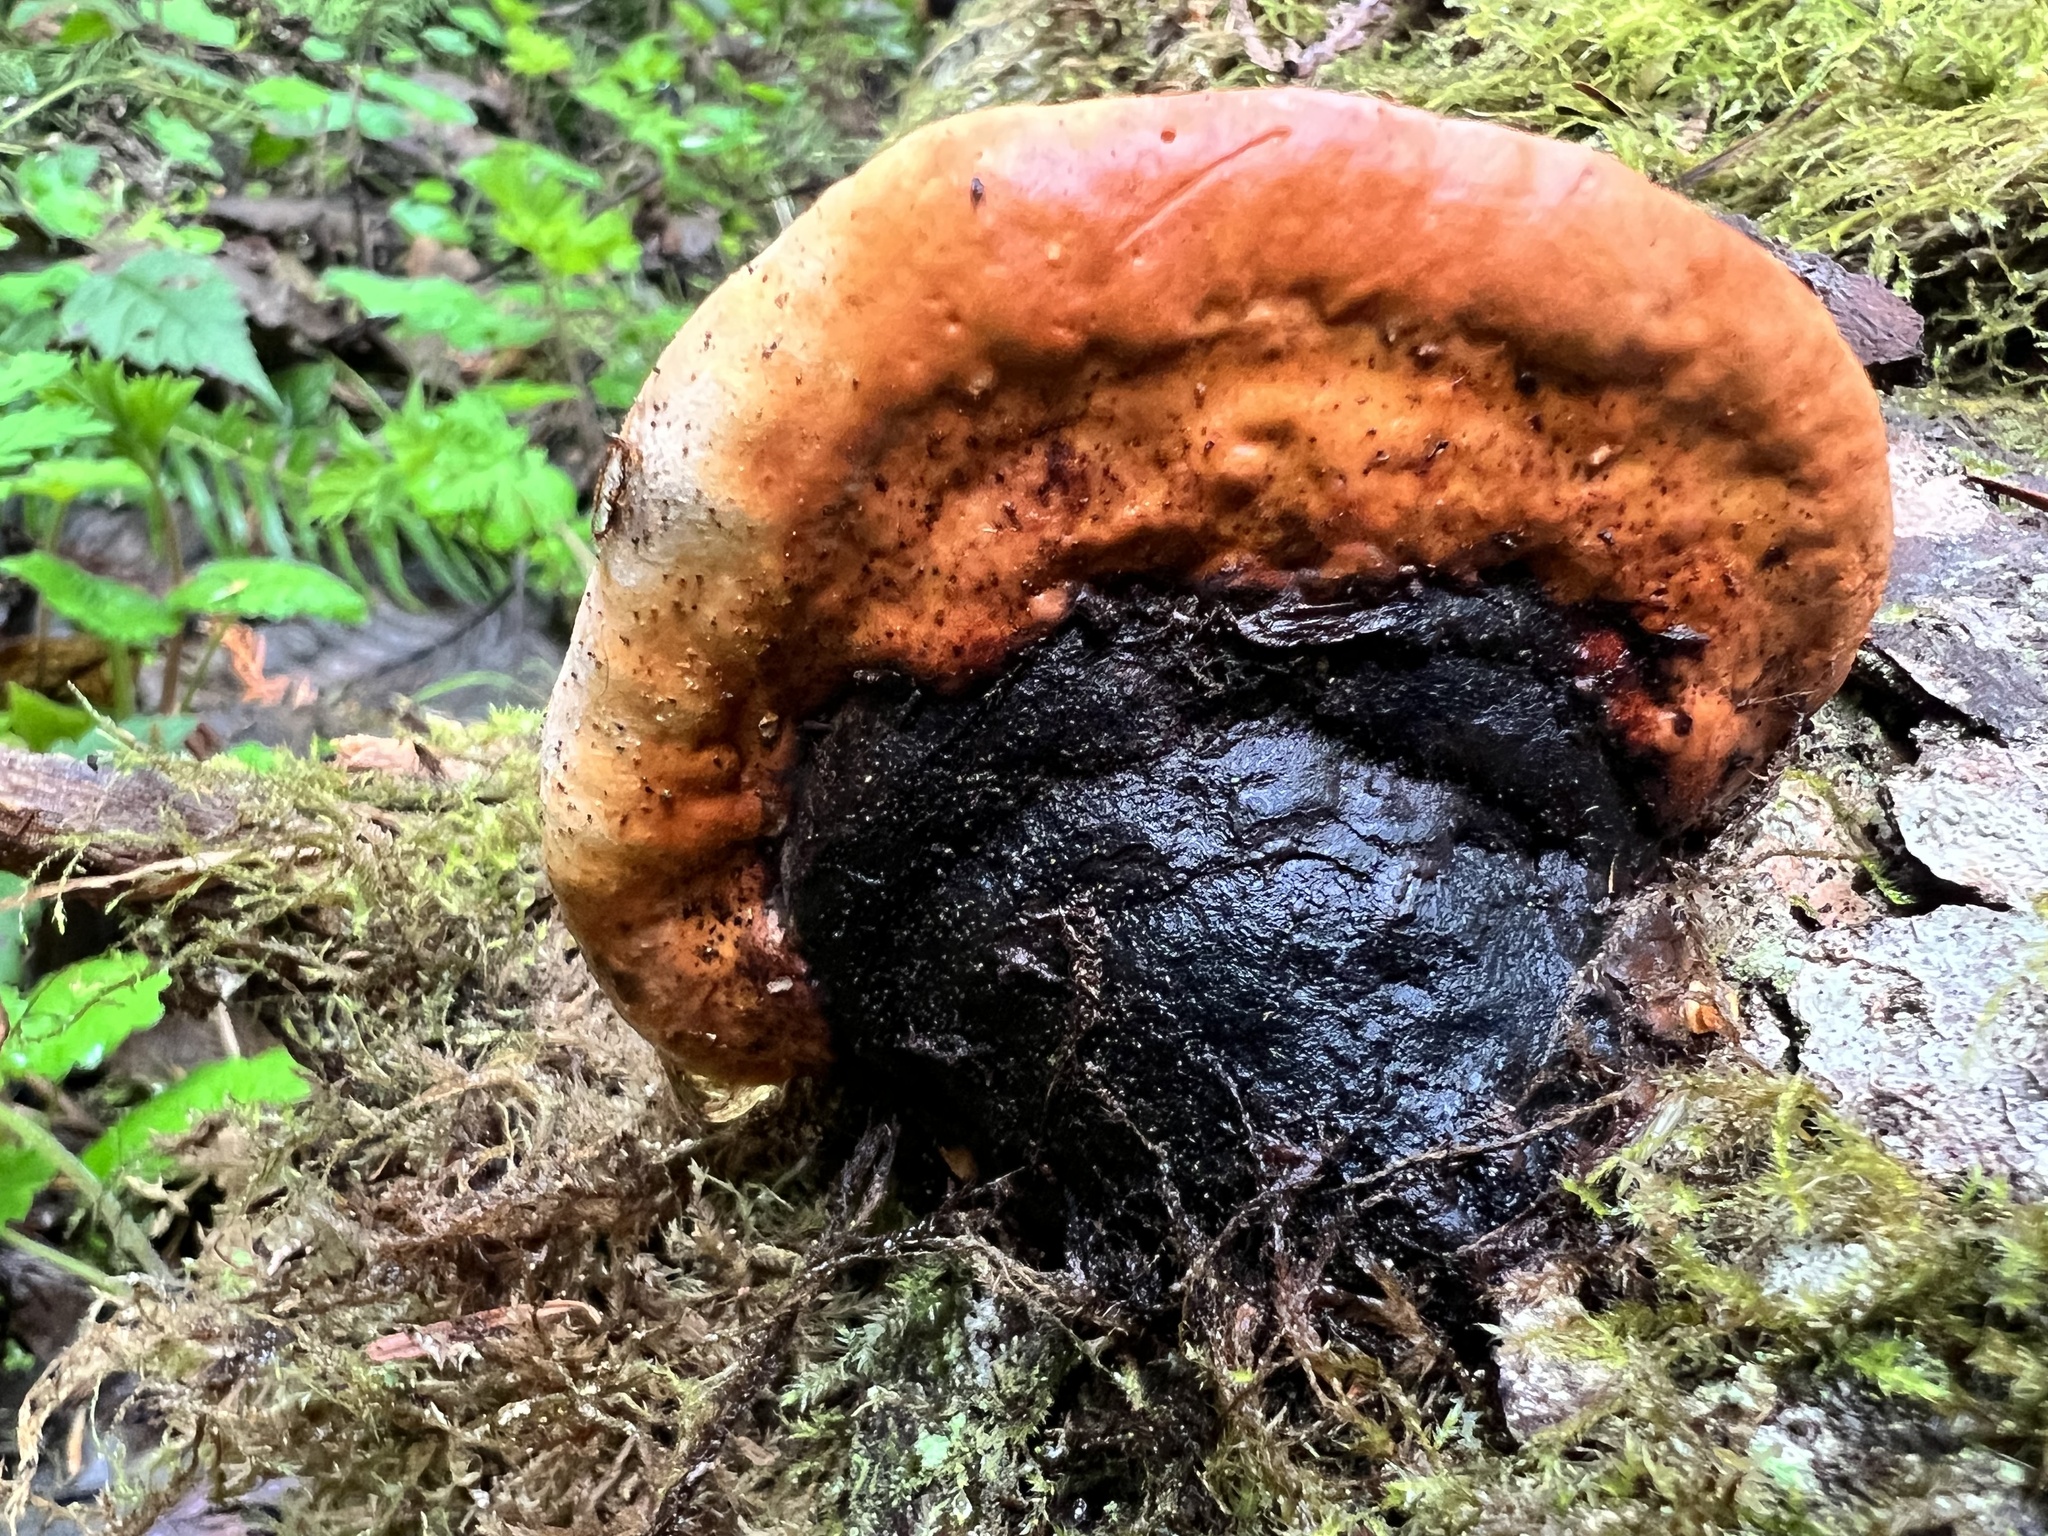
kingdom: Fungi
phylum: Basidiomycota
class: Agaricomycetes
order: Polyporales
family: Fomitopsidaceae
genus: Fomitopsis
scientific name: Fomitopsis mounceae
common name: Northern red belt
